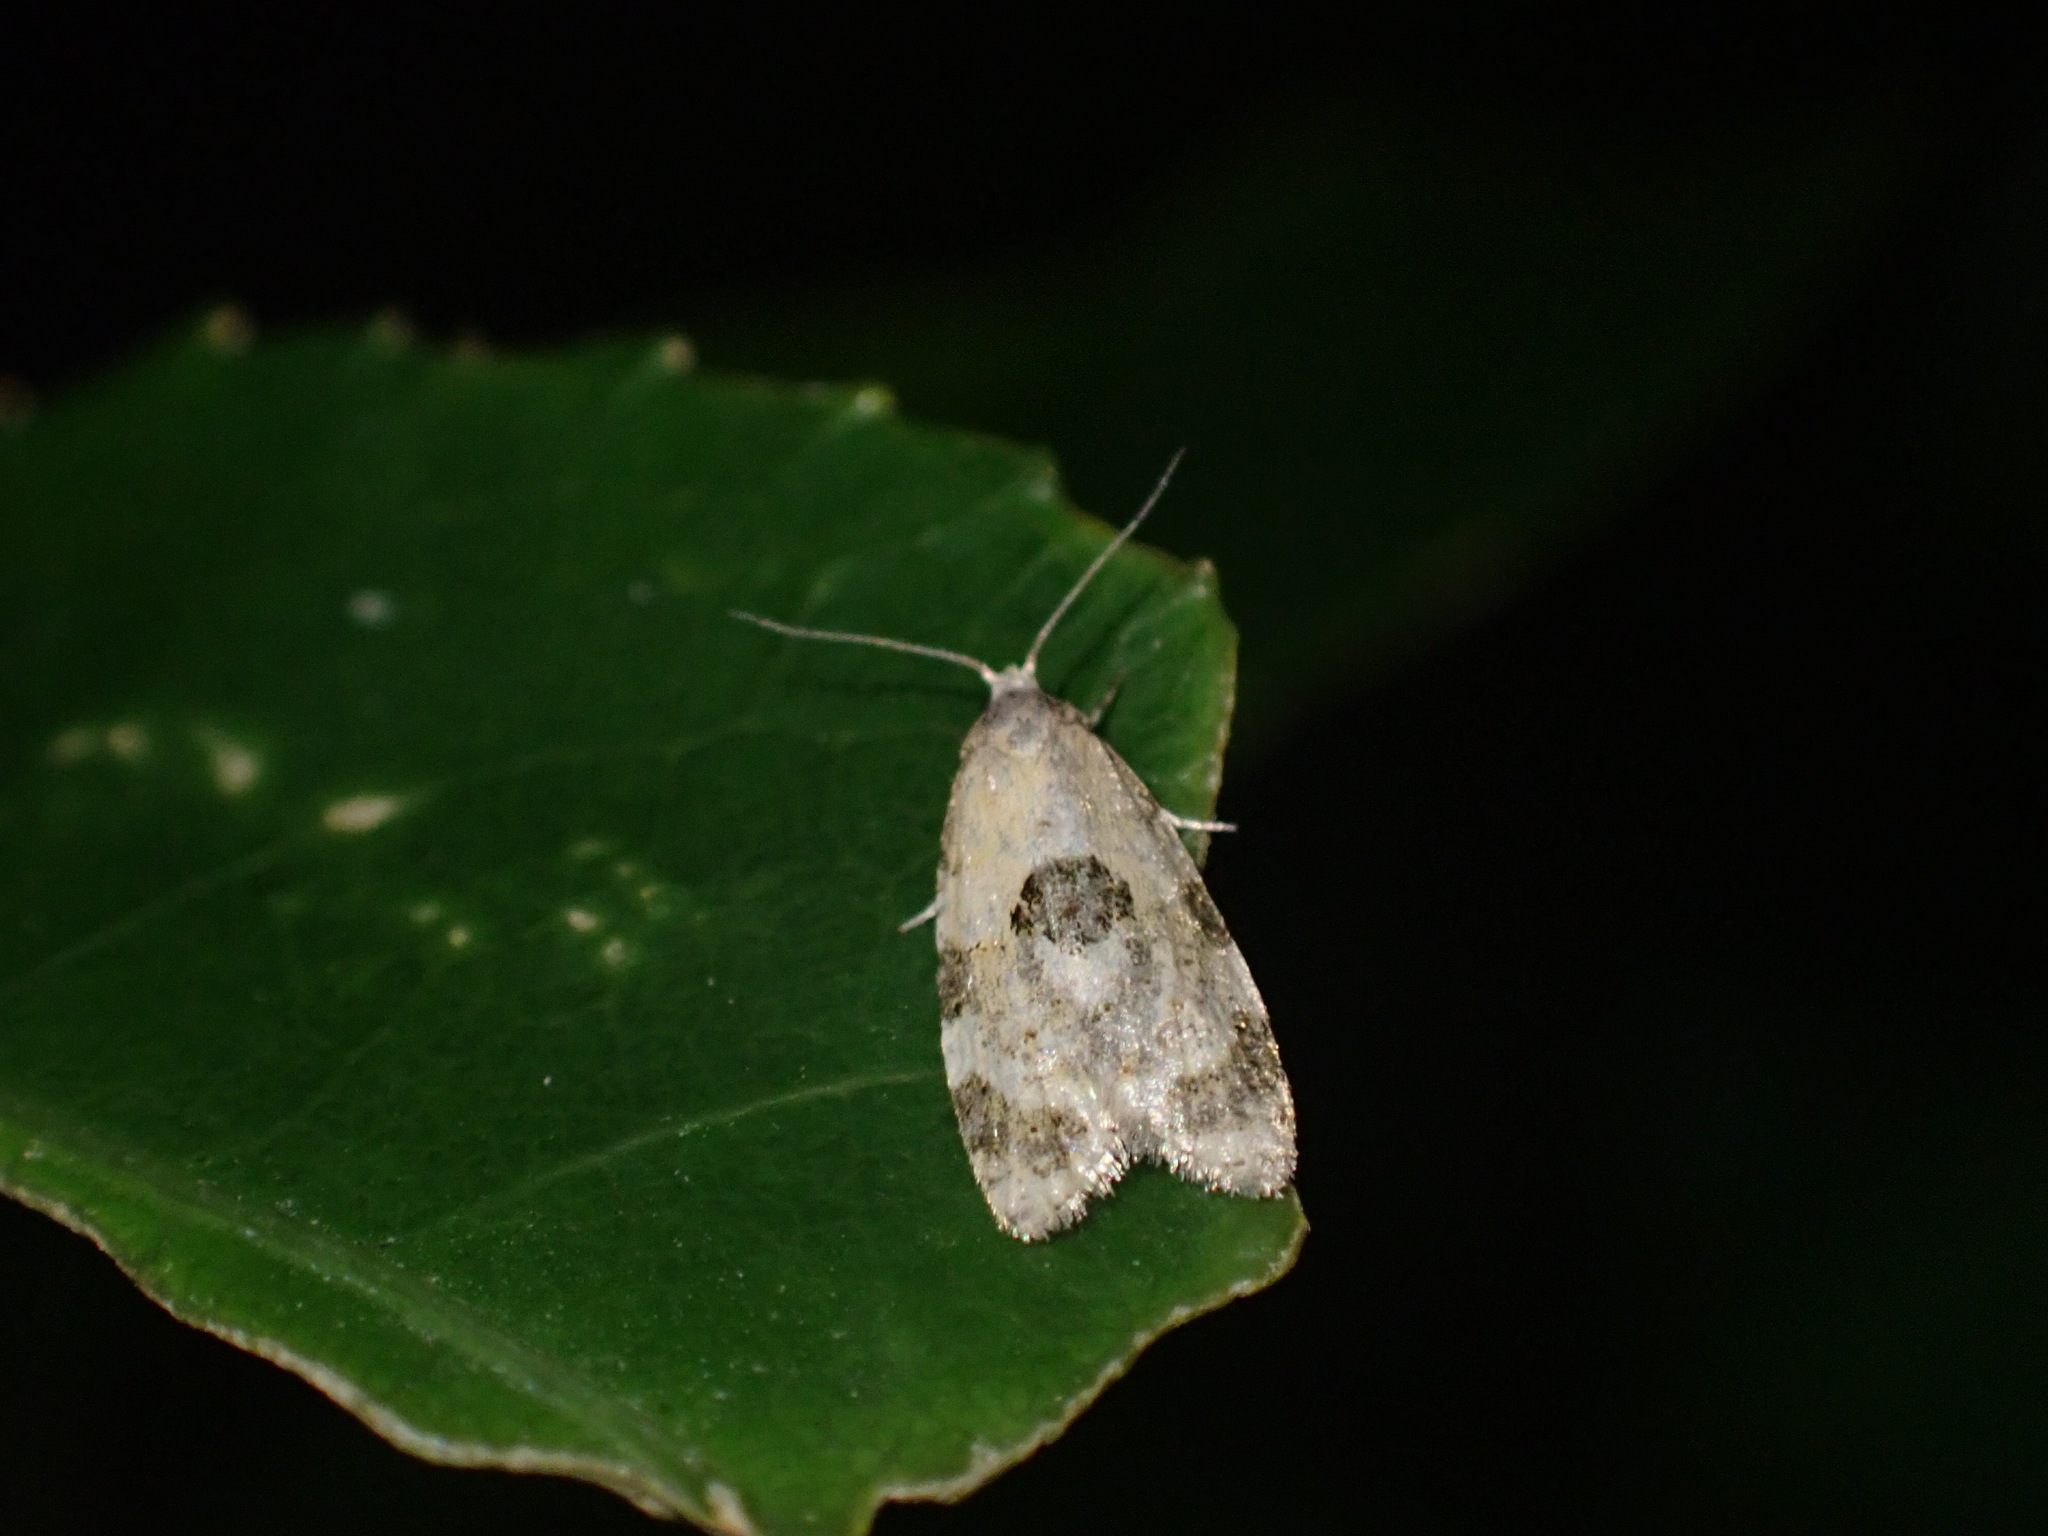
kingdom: Animalia
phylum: Arthropoda
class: Insecta
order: Lepidoptera
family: Tortricidae
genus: Dipterina
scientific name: Dipterina imbriferana
